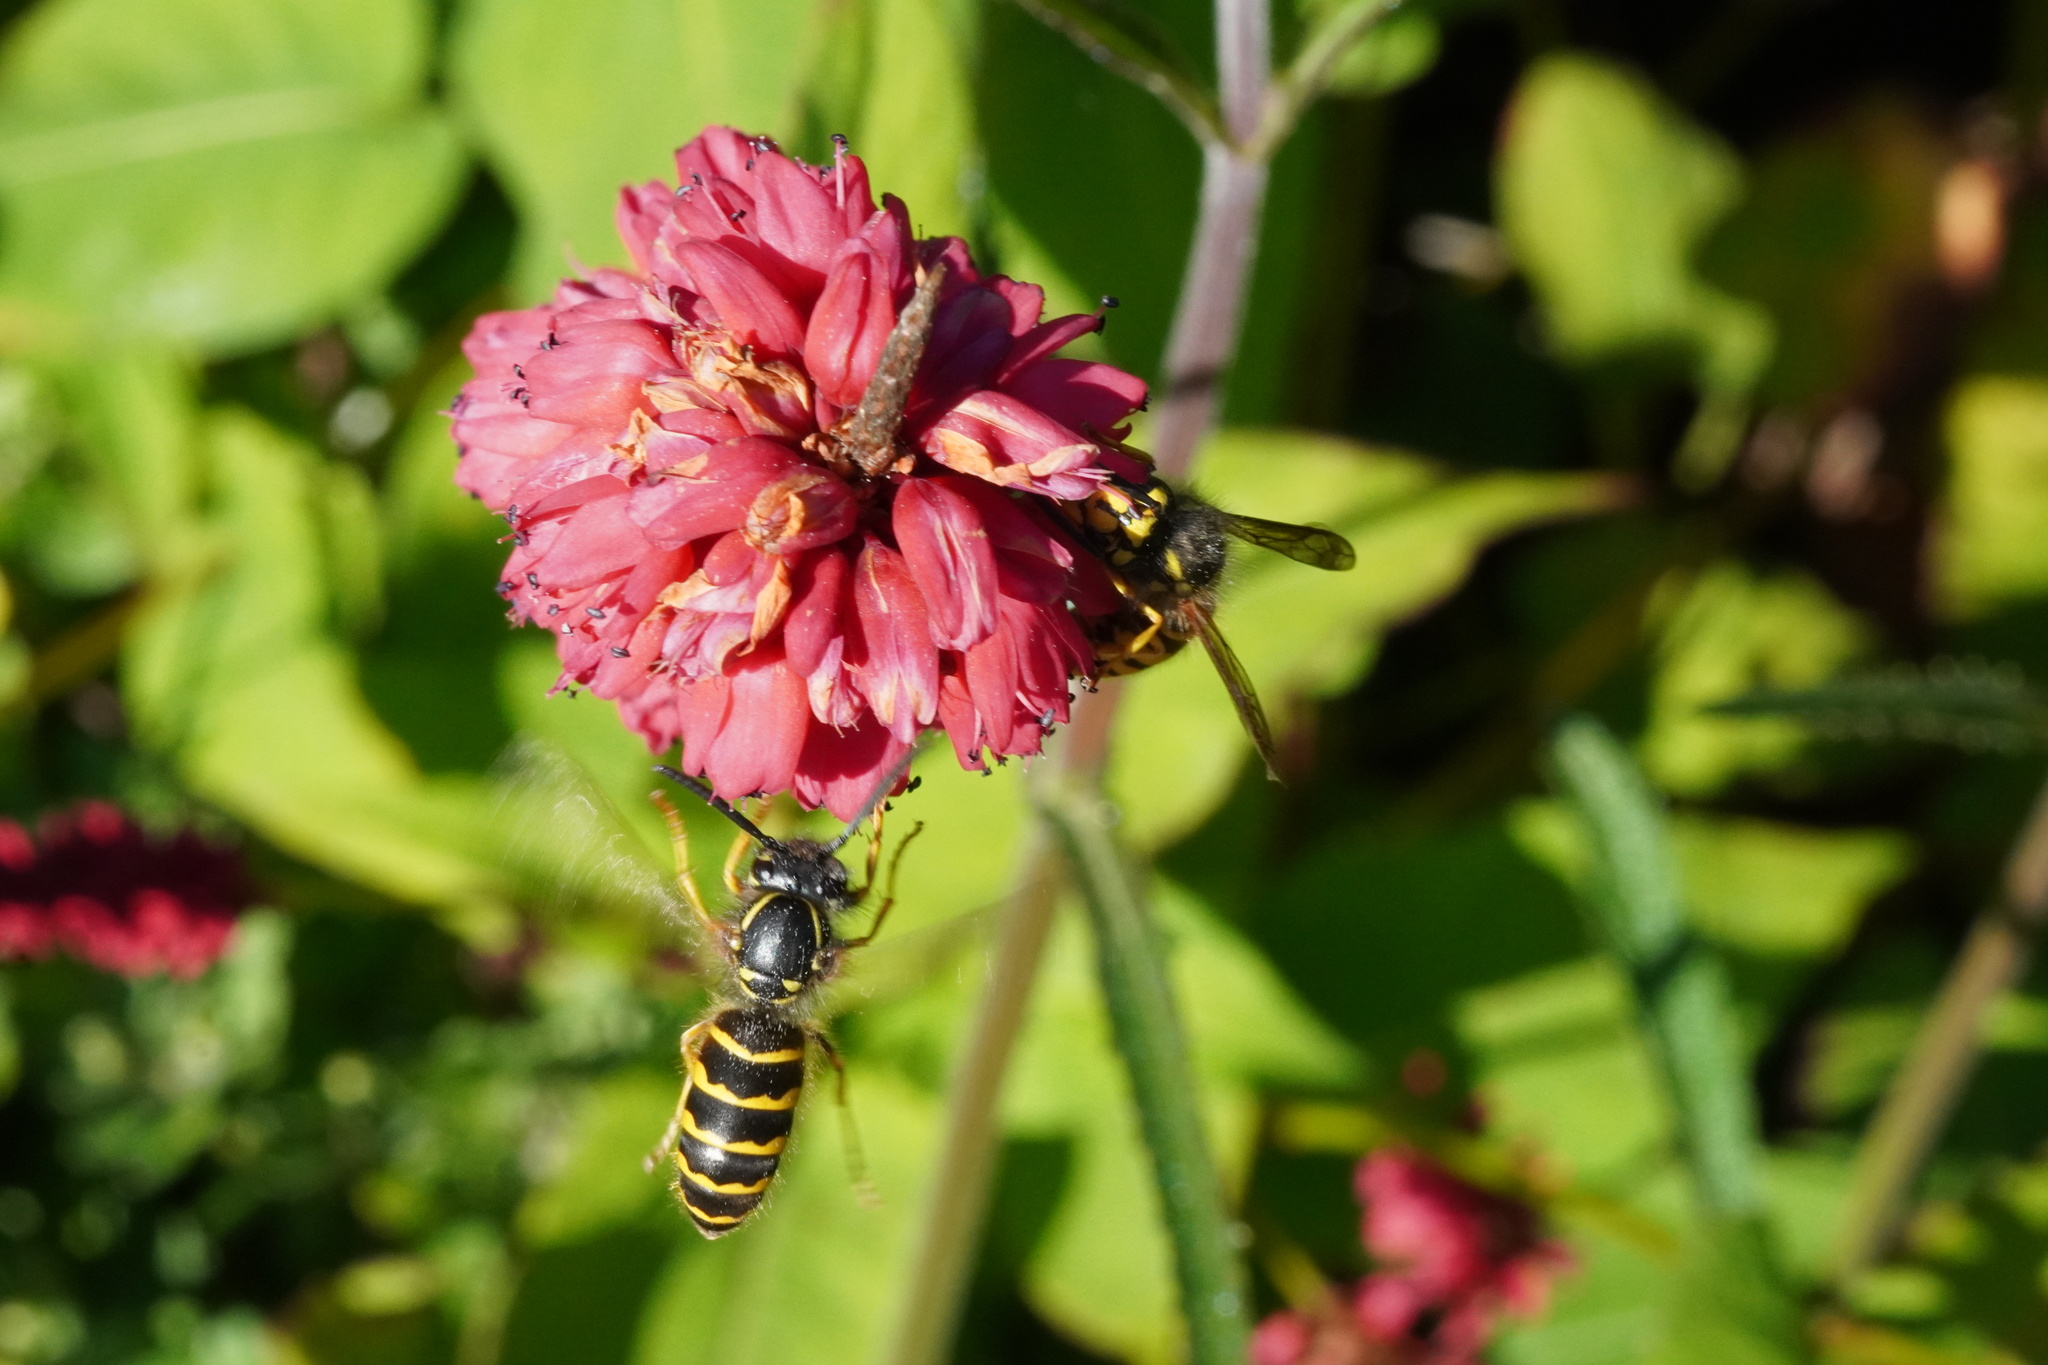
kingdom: Animalia
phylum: Arthropoda
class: Insecta
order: Hymenoptera
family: Vespidae
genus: Vespula
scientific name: Vespula alascensis
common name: Alaska yellowjacket
